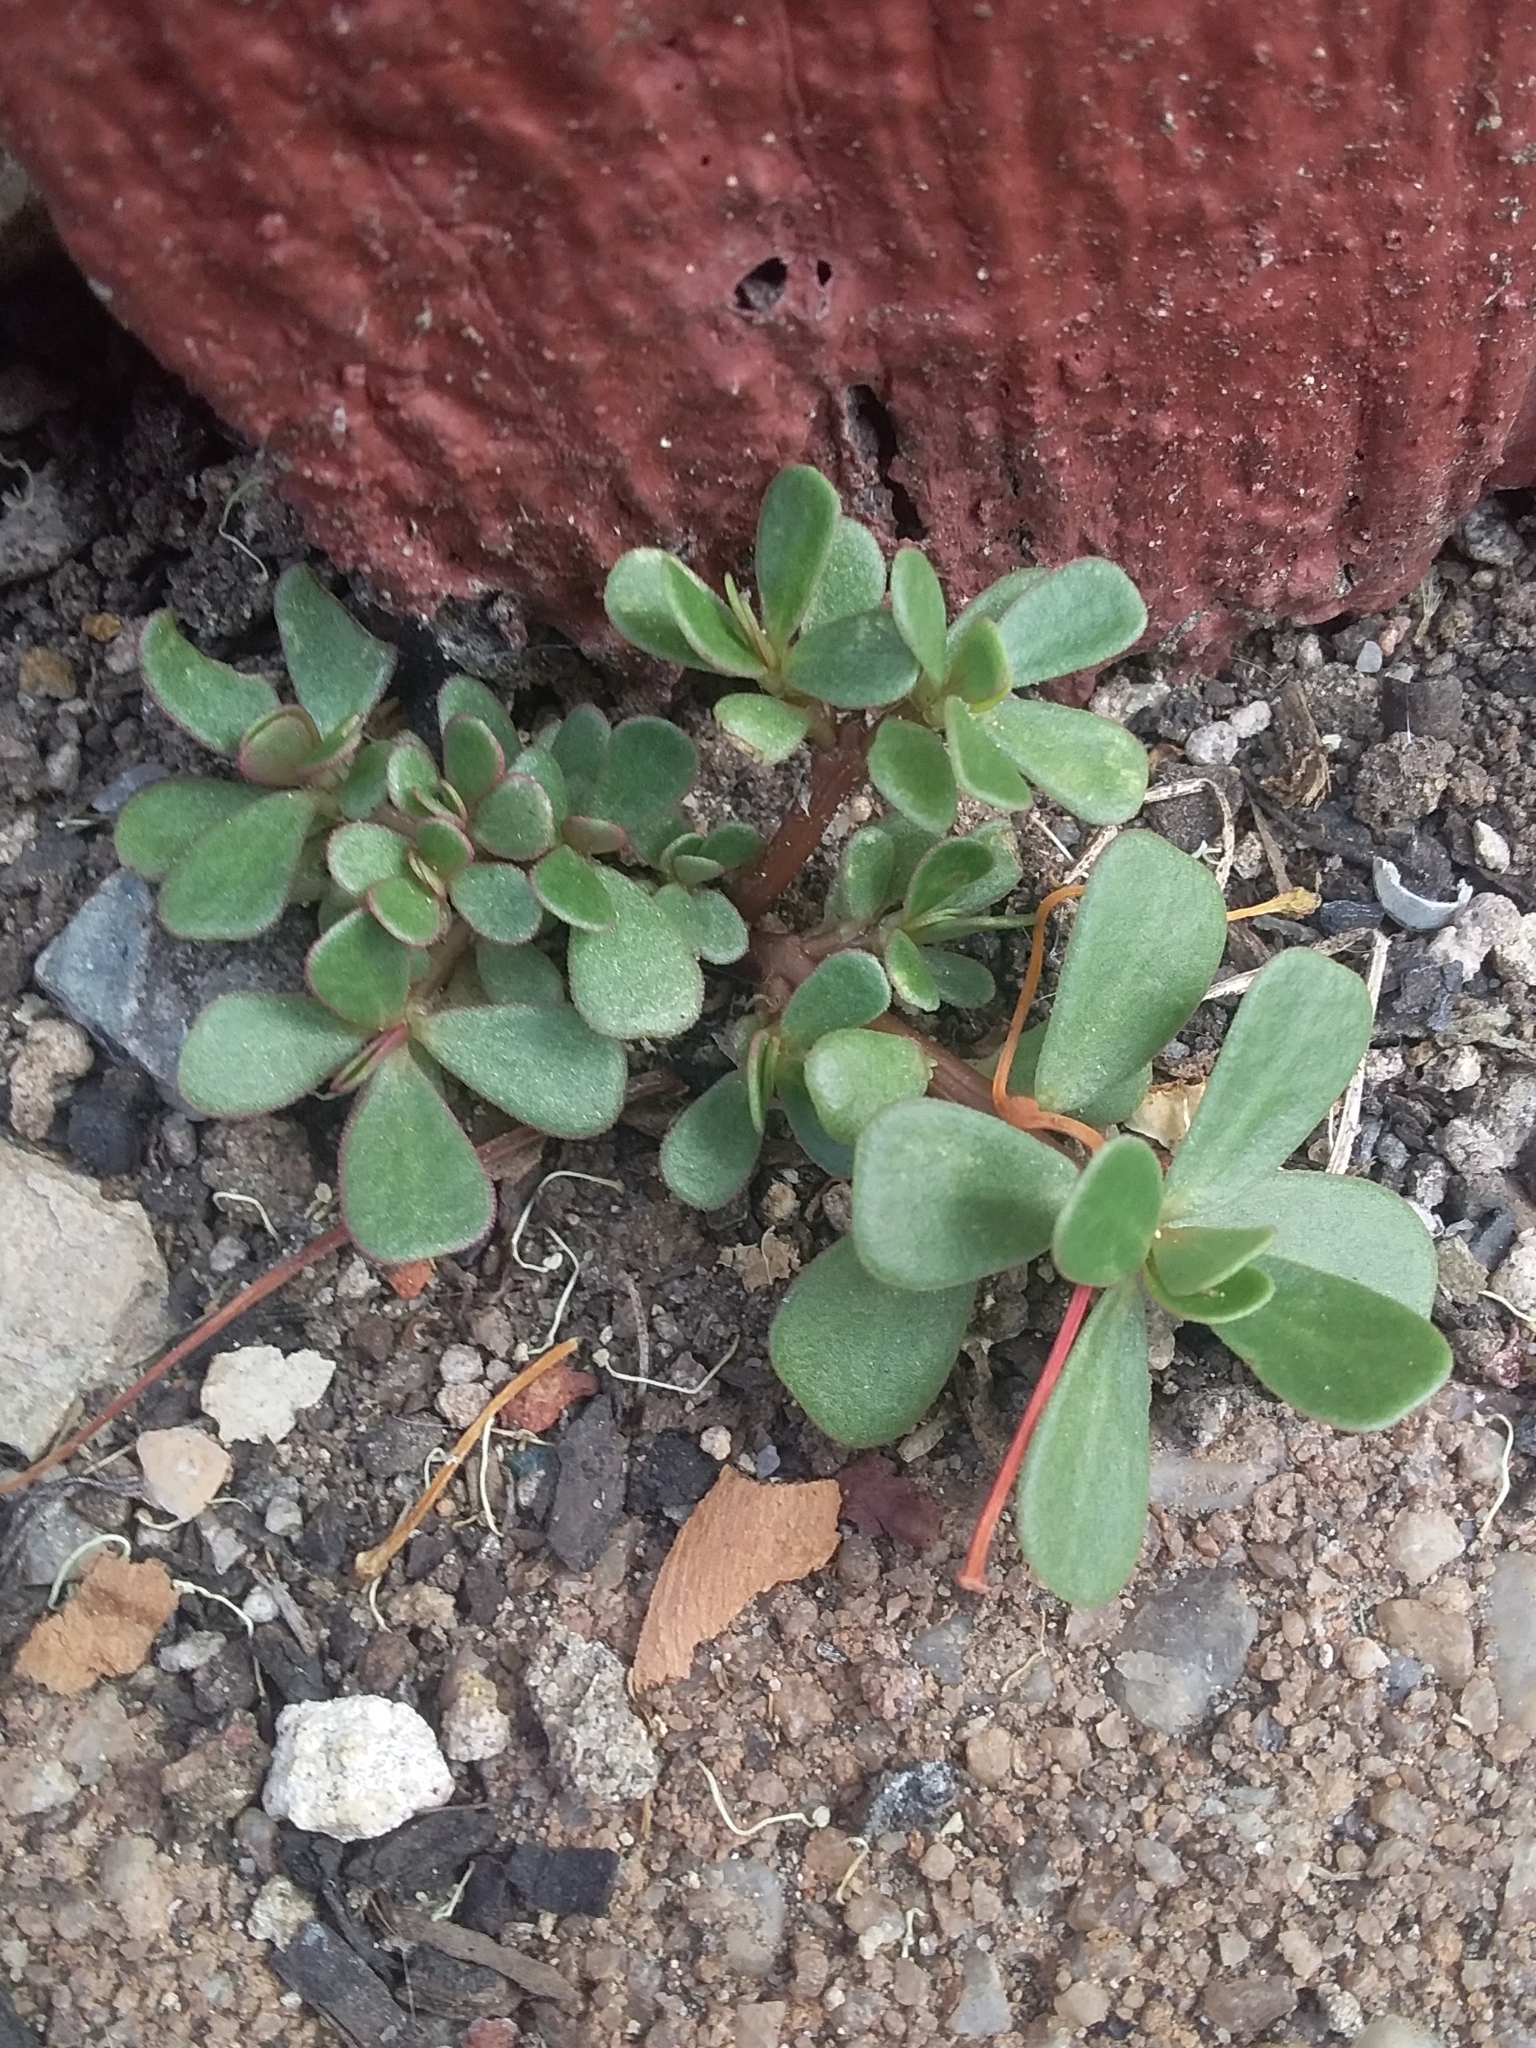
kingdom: Plantae
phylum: Tracheophyta
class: Magnoliopsida
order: Caryophyllales
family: Portulacaceae
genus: Portulaca
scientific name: Portulaca oleracea
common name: Common purslane
